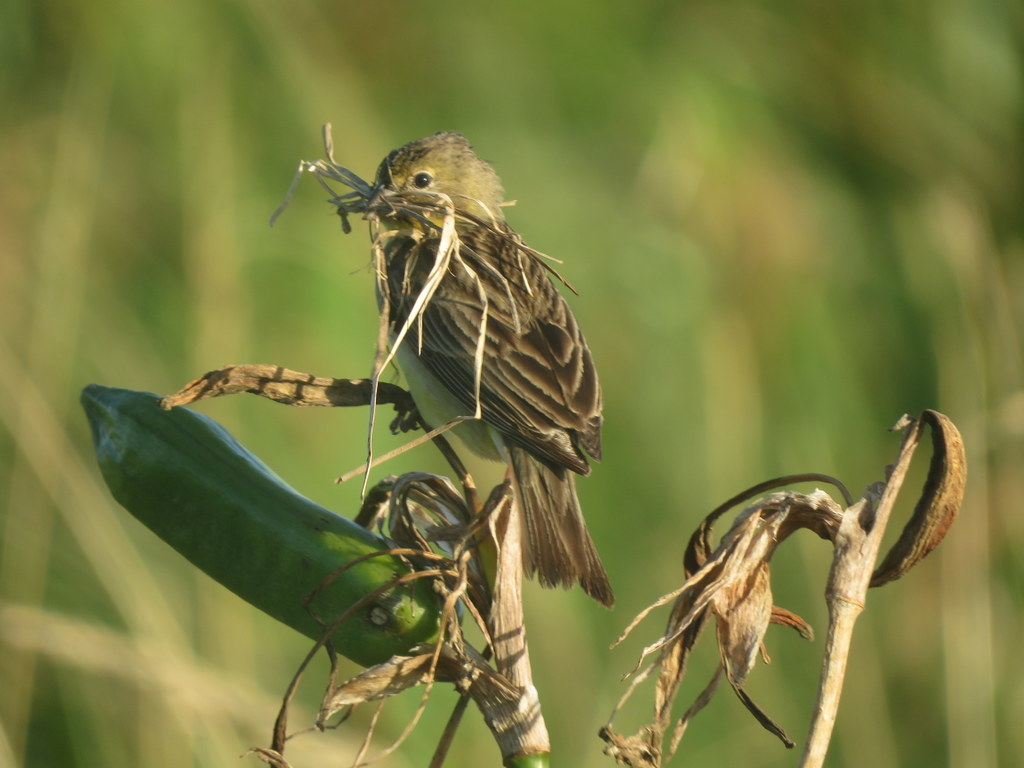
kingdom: Animalia
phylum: Chordata
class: Aves
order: Passeriformes
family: Thraupidae
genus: Sicalis
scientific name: Sicalis luteola
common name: Grassland yellow-finch
